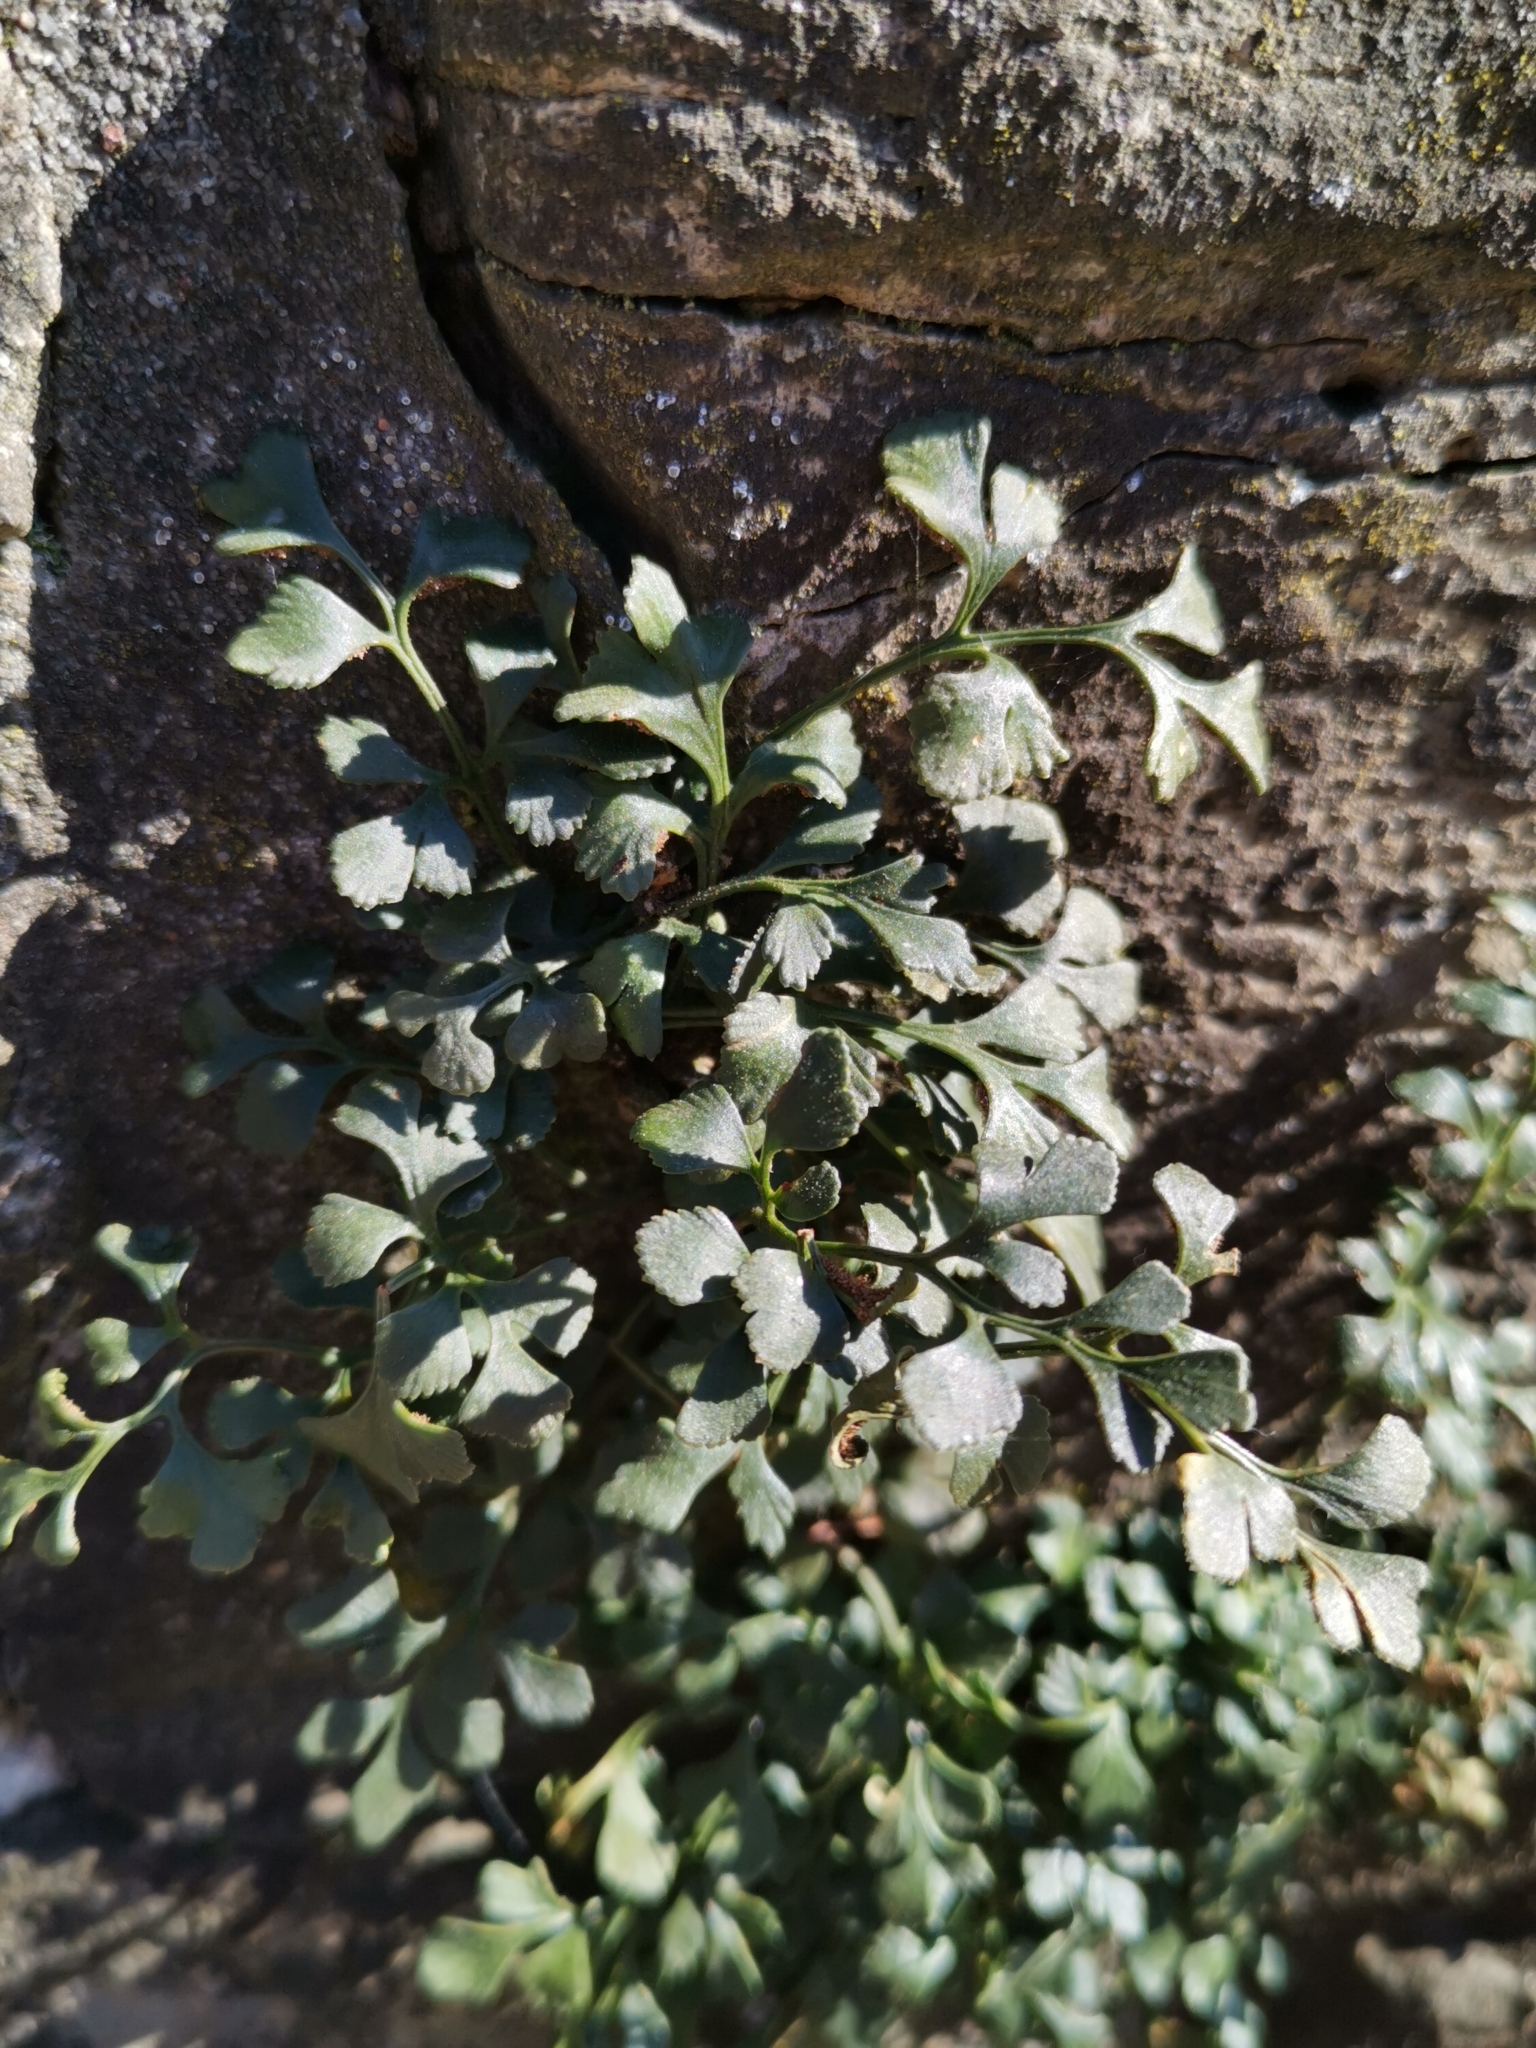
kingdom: Plantae
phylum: Tracheophyta
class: Polypodiopsida
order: Polypodiales
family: Aspleniaceae
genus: Asplenium
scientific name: Asplenium ruta-muraria
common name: Wall-rue
